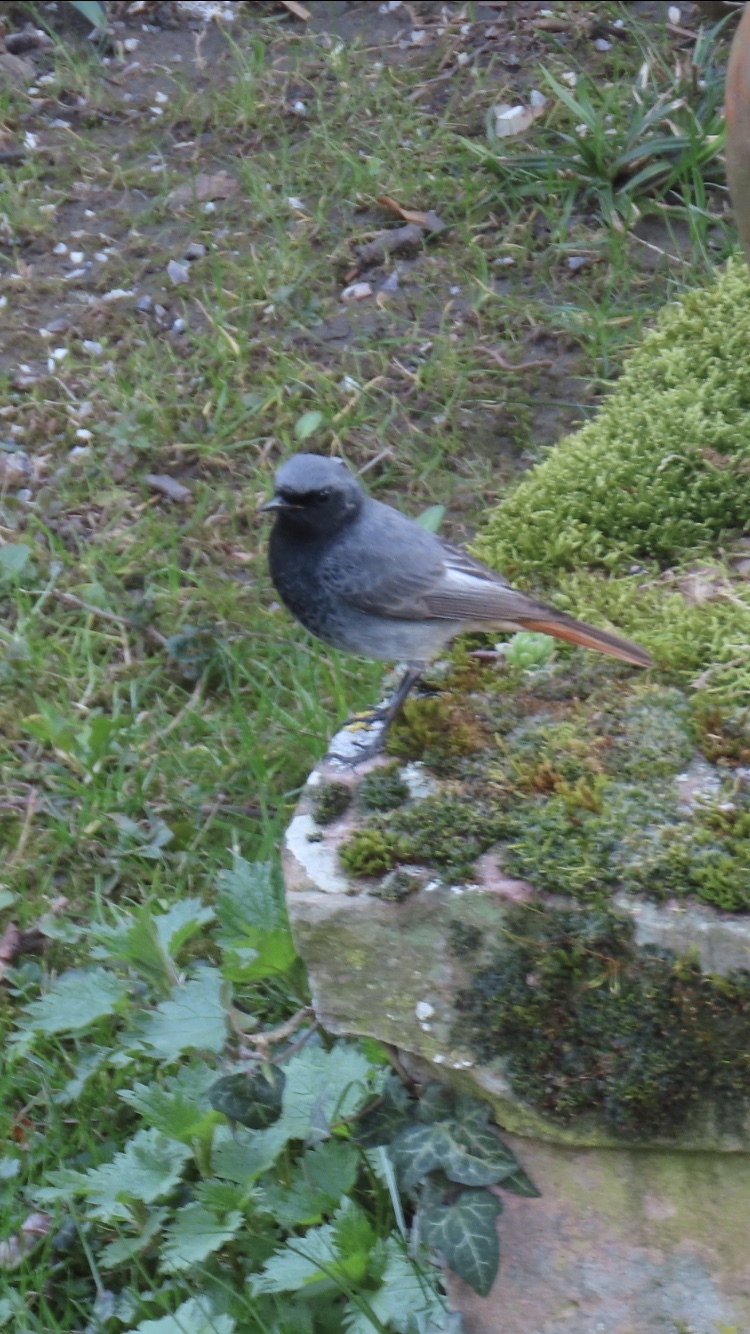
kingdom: Animalia
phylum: Chordata
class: Aves
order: Passeriformes
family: Muscicapidae
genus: Phoenicurus
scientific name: Phoenicurus ochruros
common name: Black redstart
